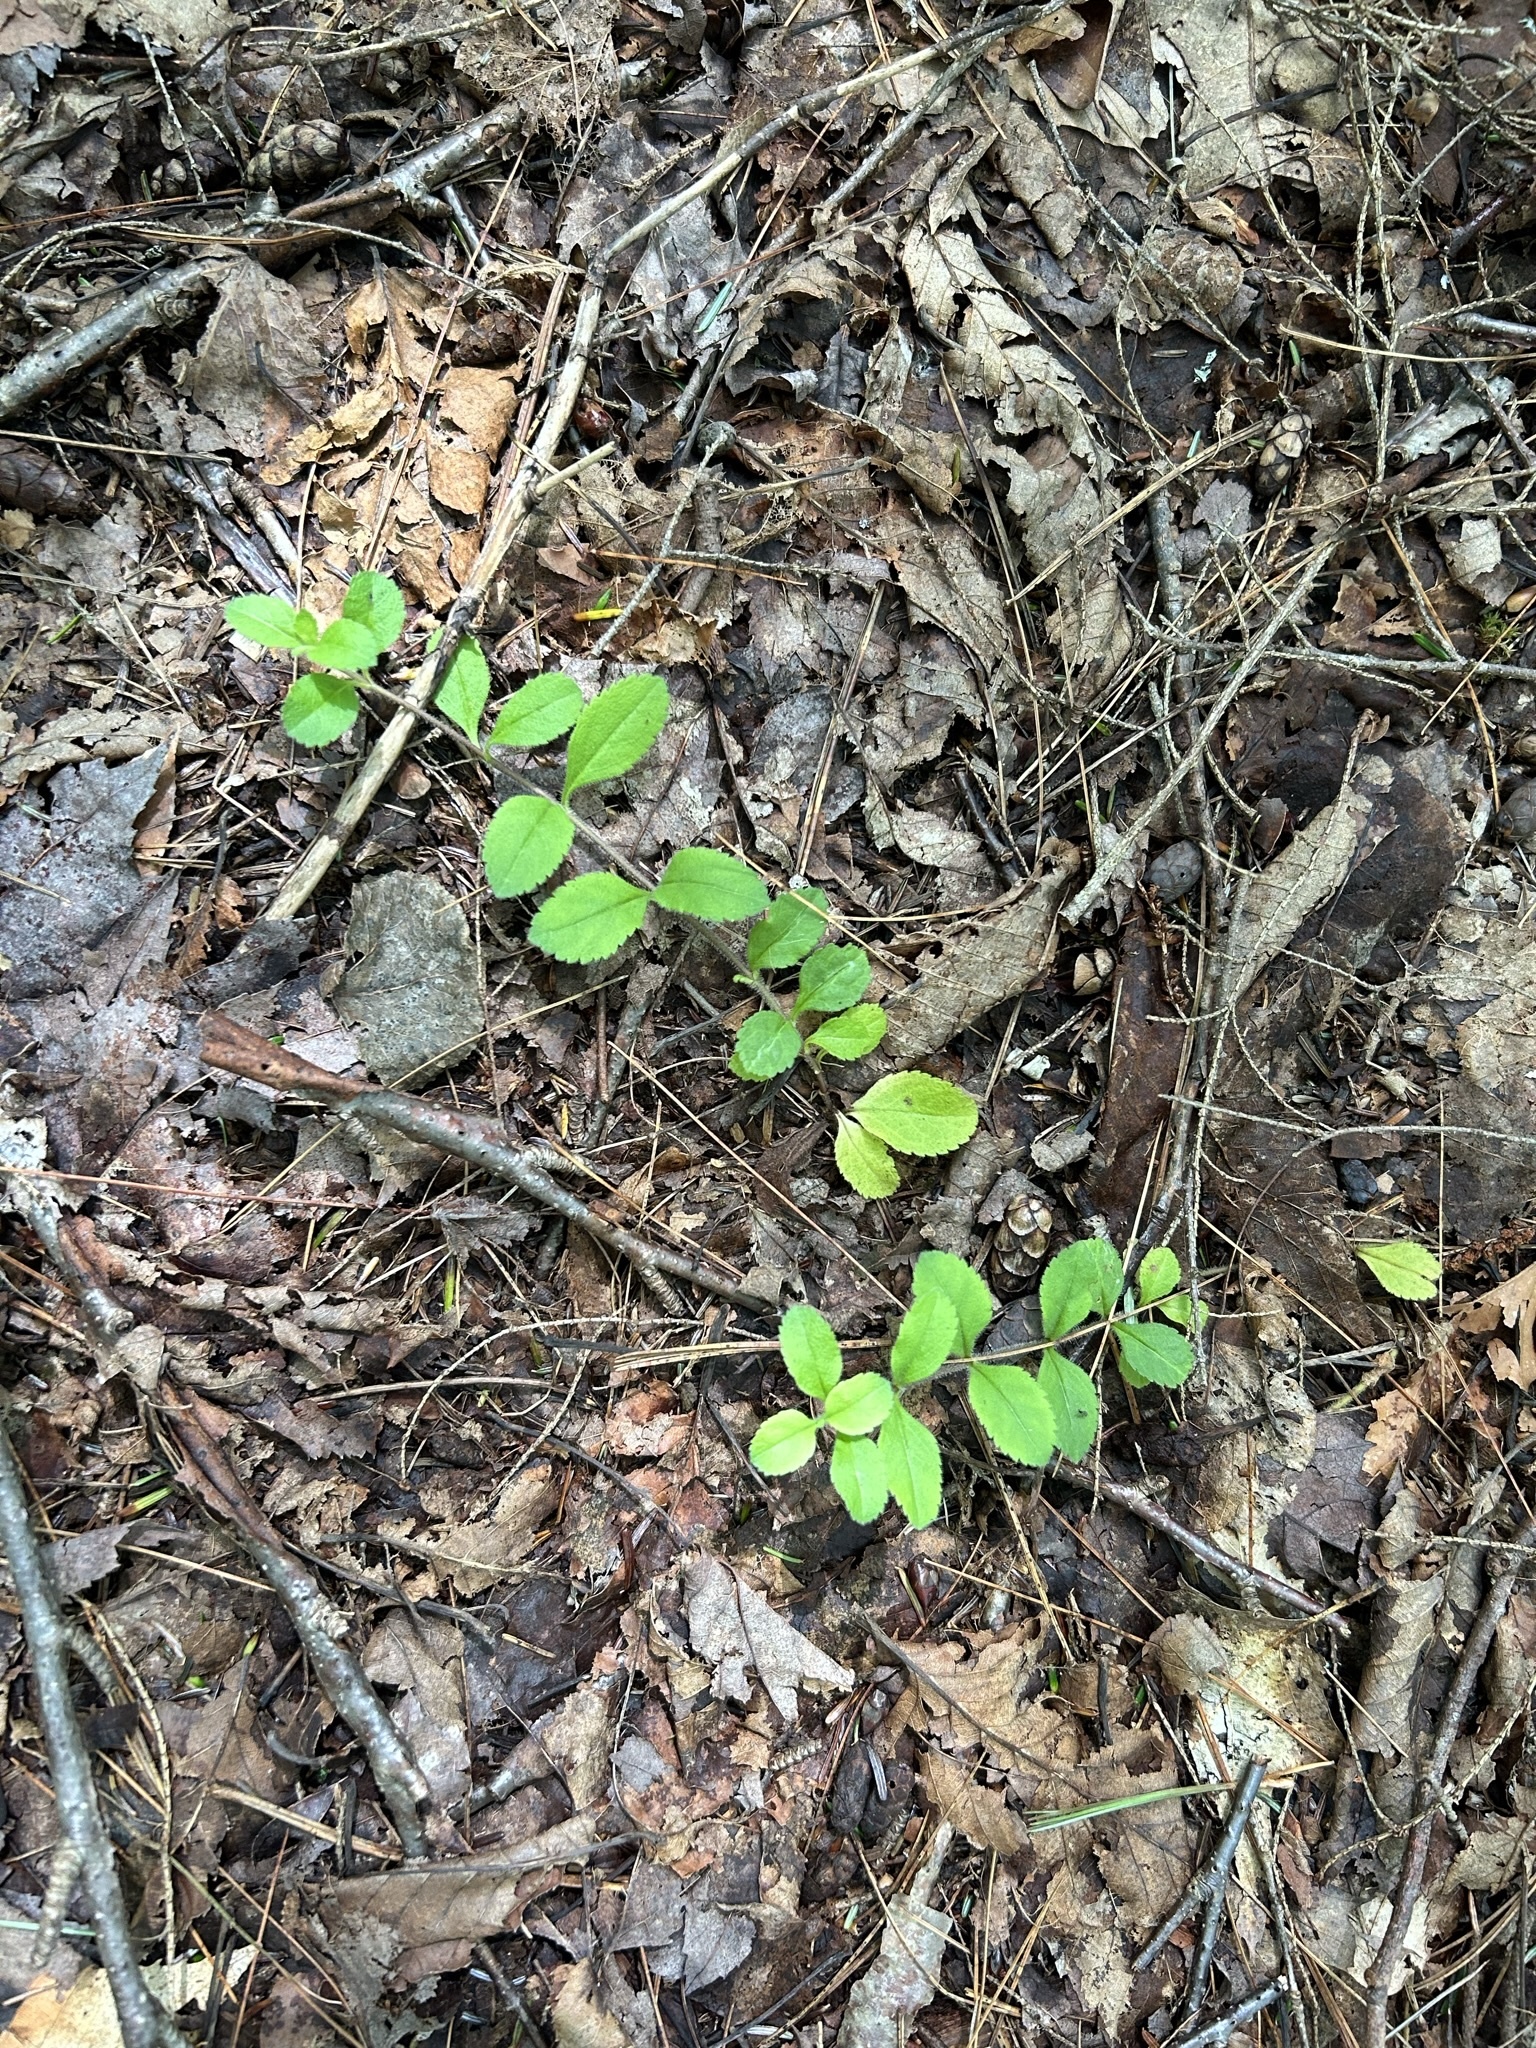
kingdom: Plantae
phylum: Tracheophyta
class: Magnoliopsida
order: Lamiales
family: Plantaginaceae
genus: Veronica
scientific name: Veronica officinalis
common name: Common speedwell
